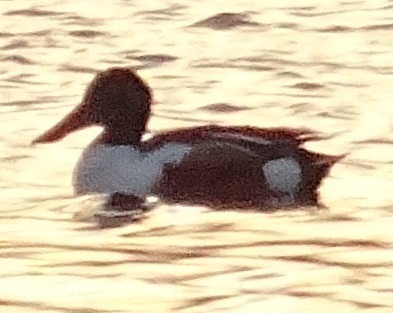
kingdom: Animalia
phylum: Chordata
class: Aves
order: Anseriformes
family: Anatidae
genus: Spatula
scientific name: Spatula clypeata
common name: Northern shoveler
